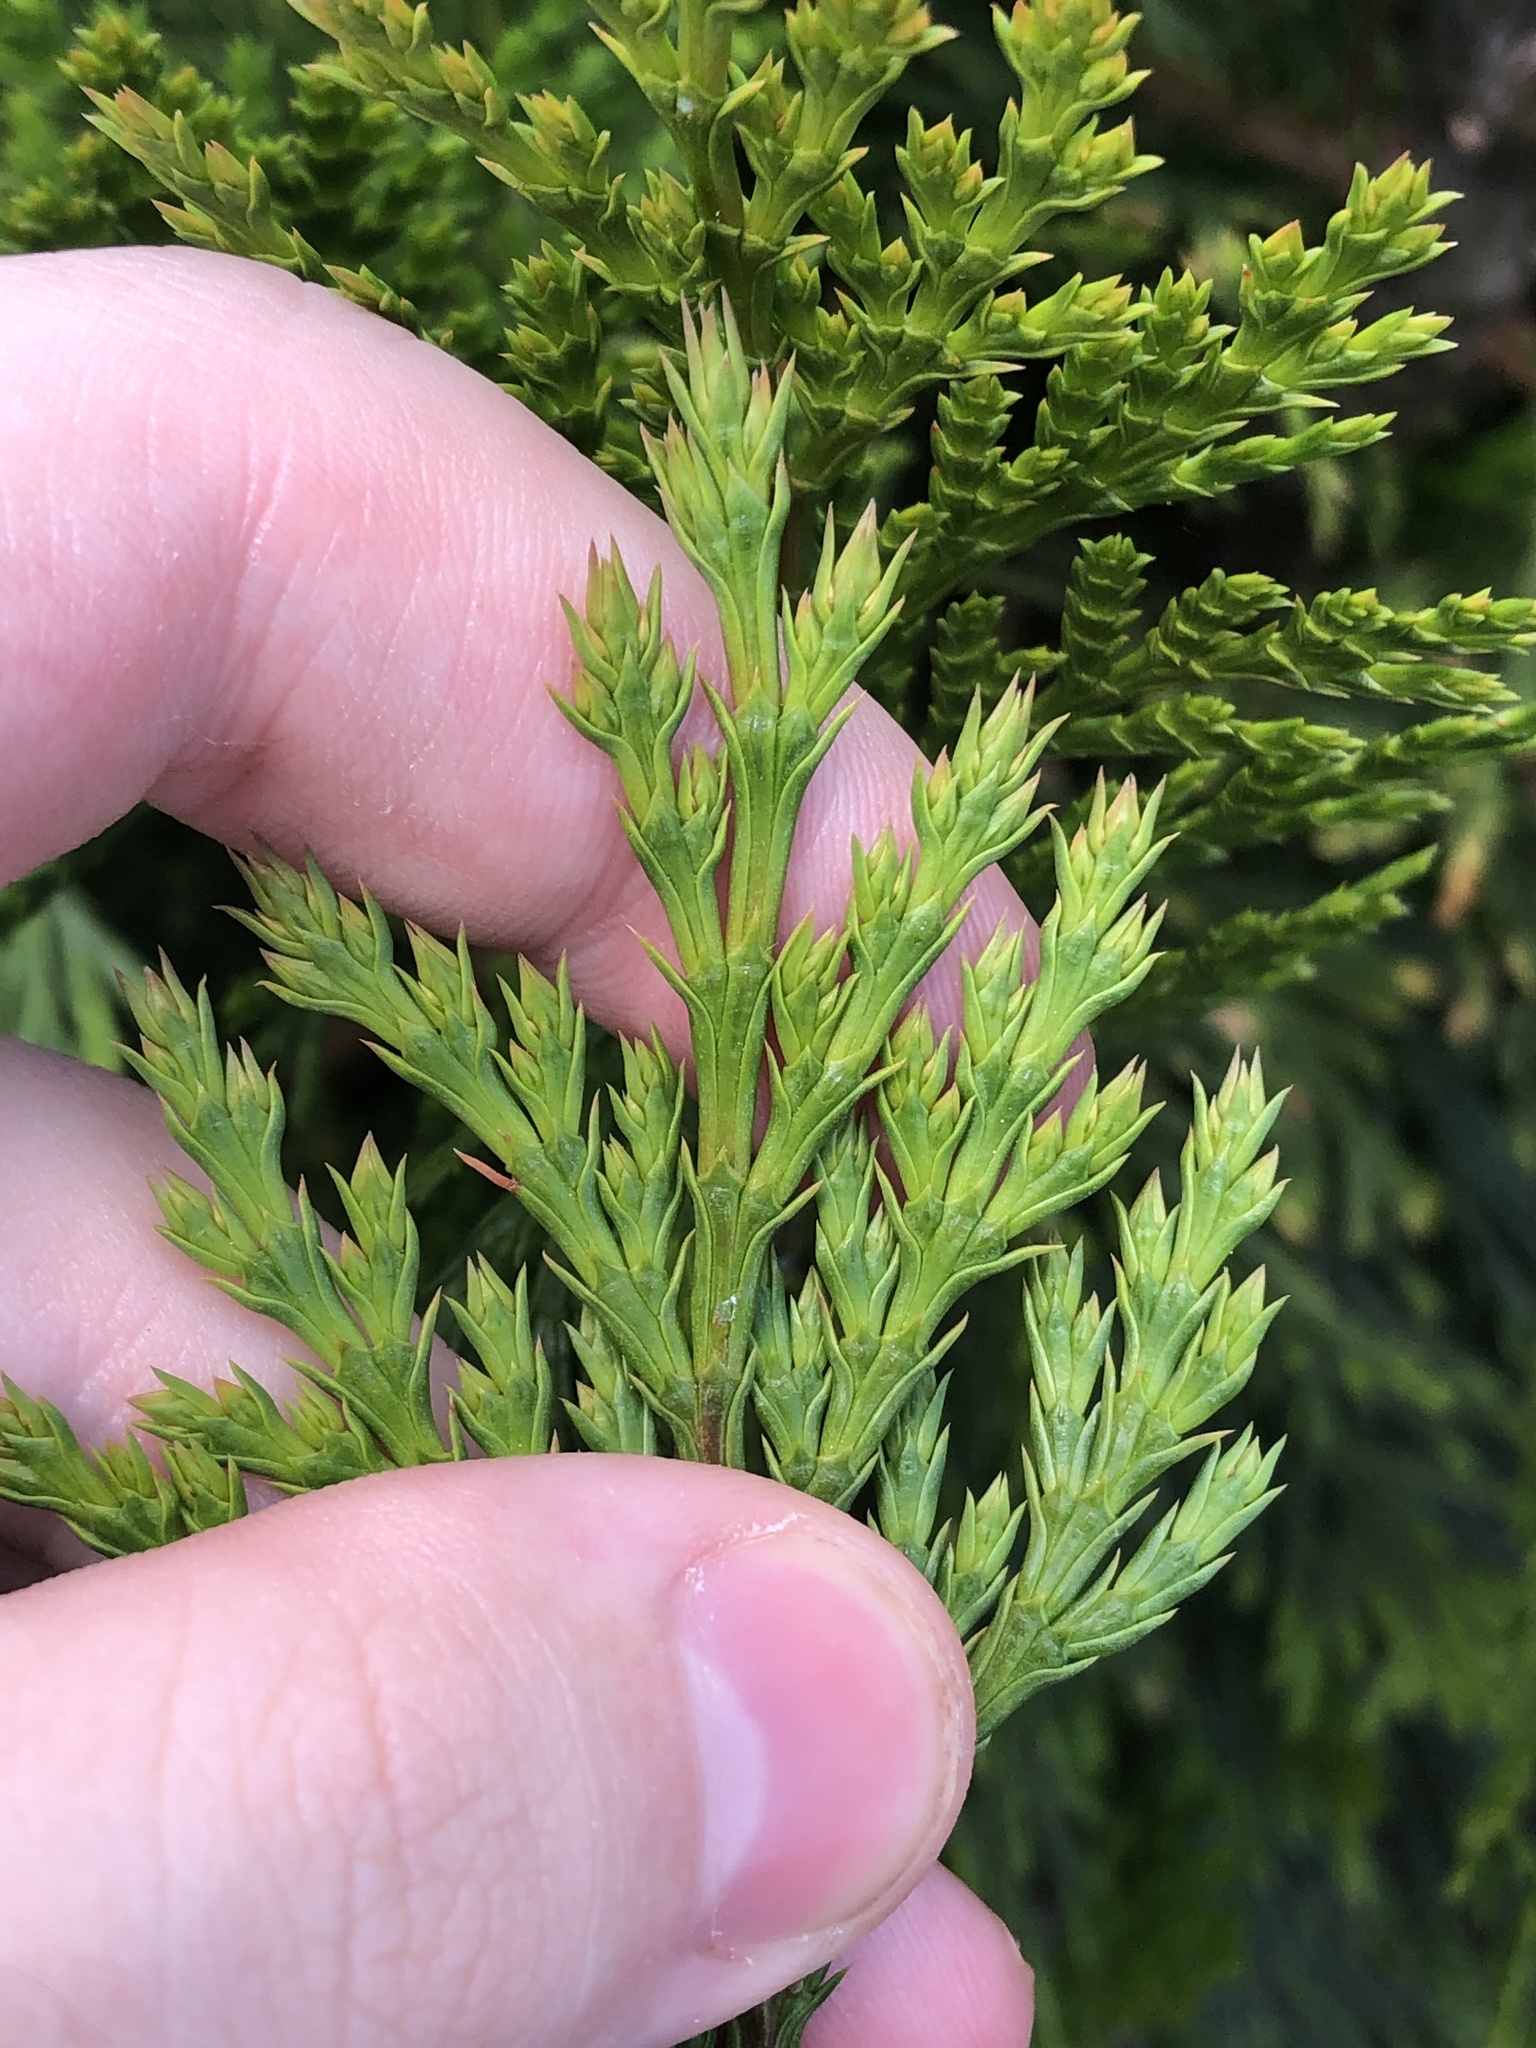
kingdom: Plantae
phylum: Tracheophyta
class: Pinopsida
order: Pinales
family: Cupressaceae
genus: Calocedrus
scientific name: Calocedrus decurrens
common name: Californian incense-cedar
